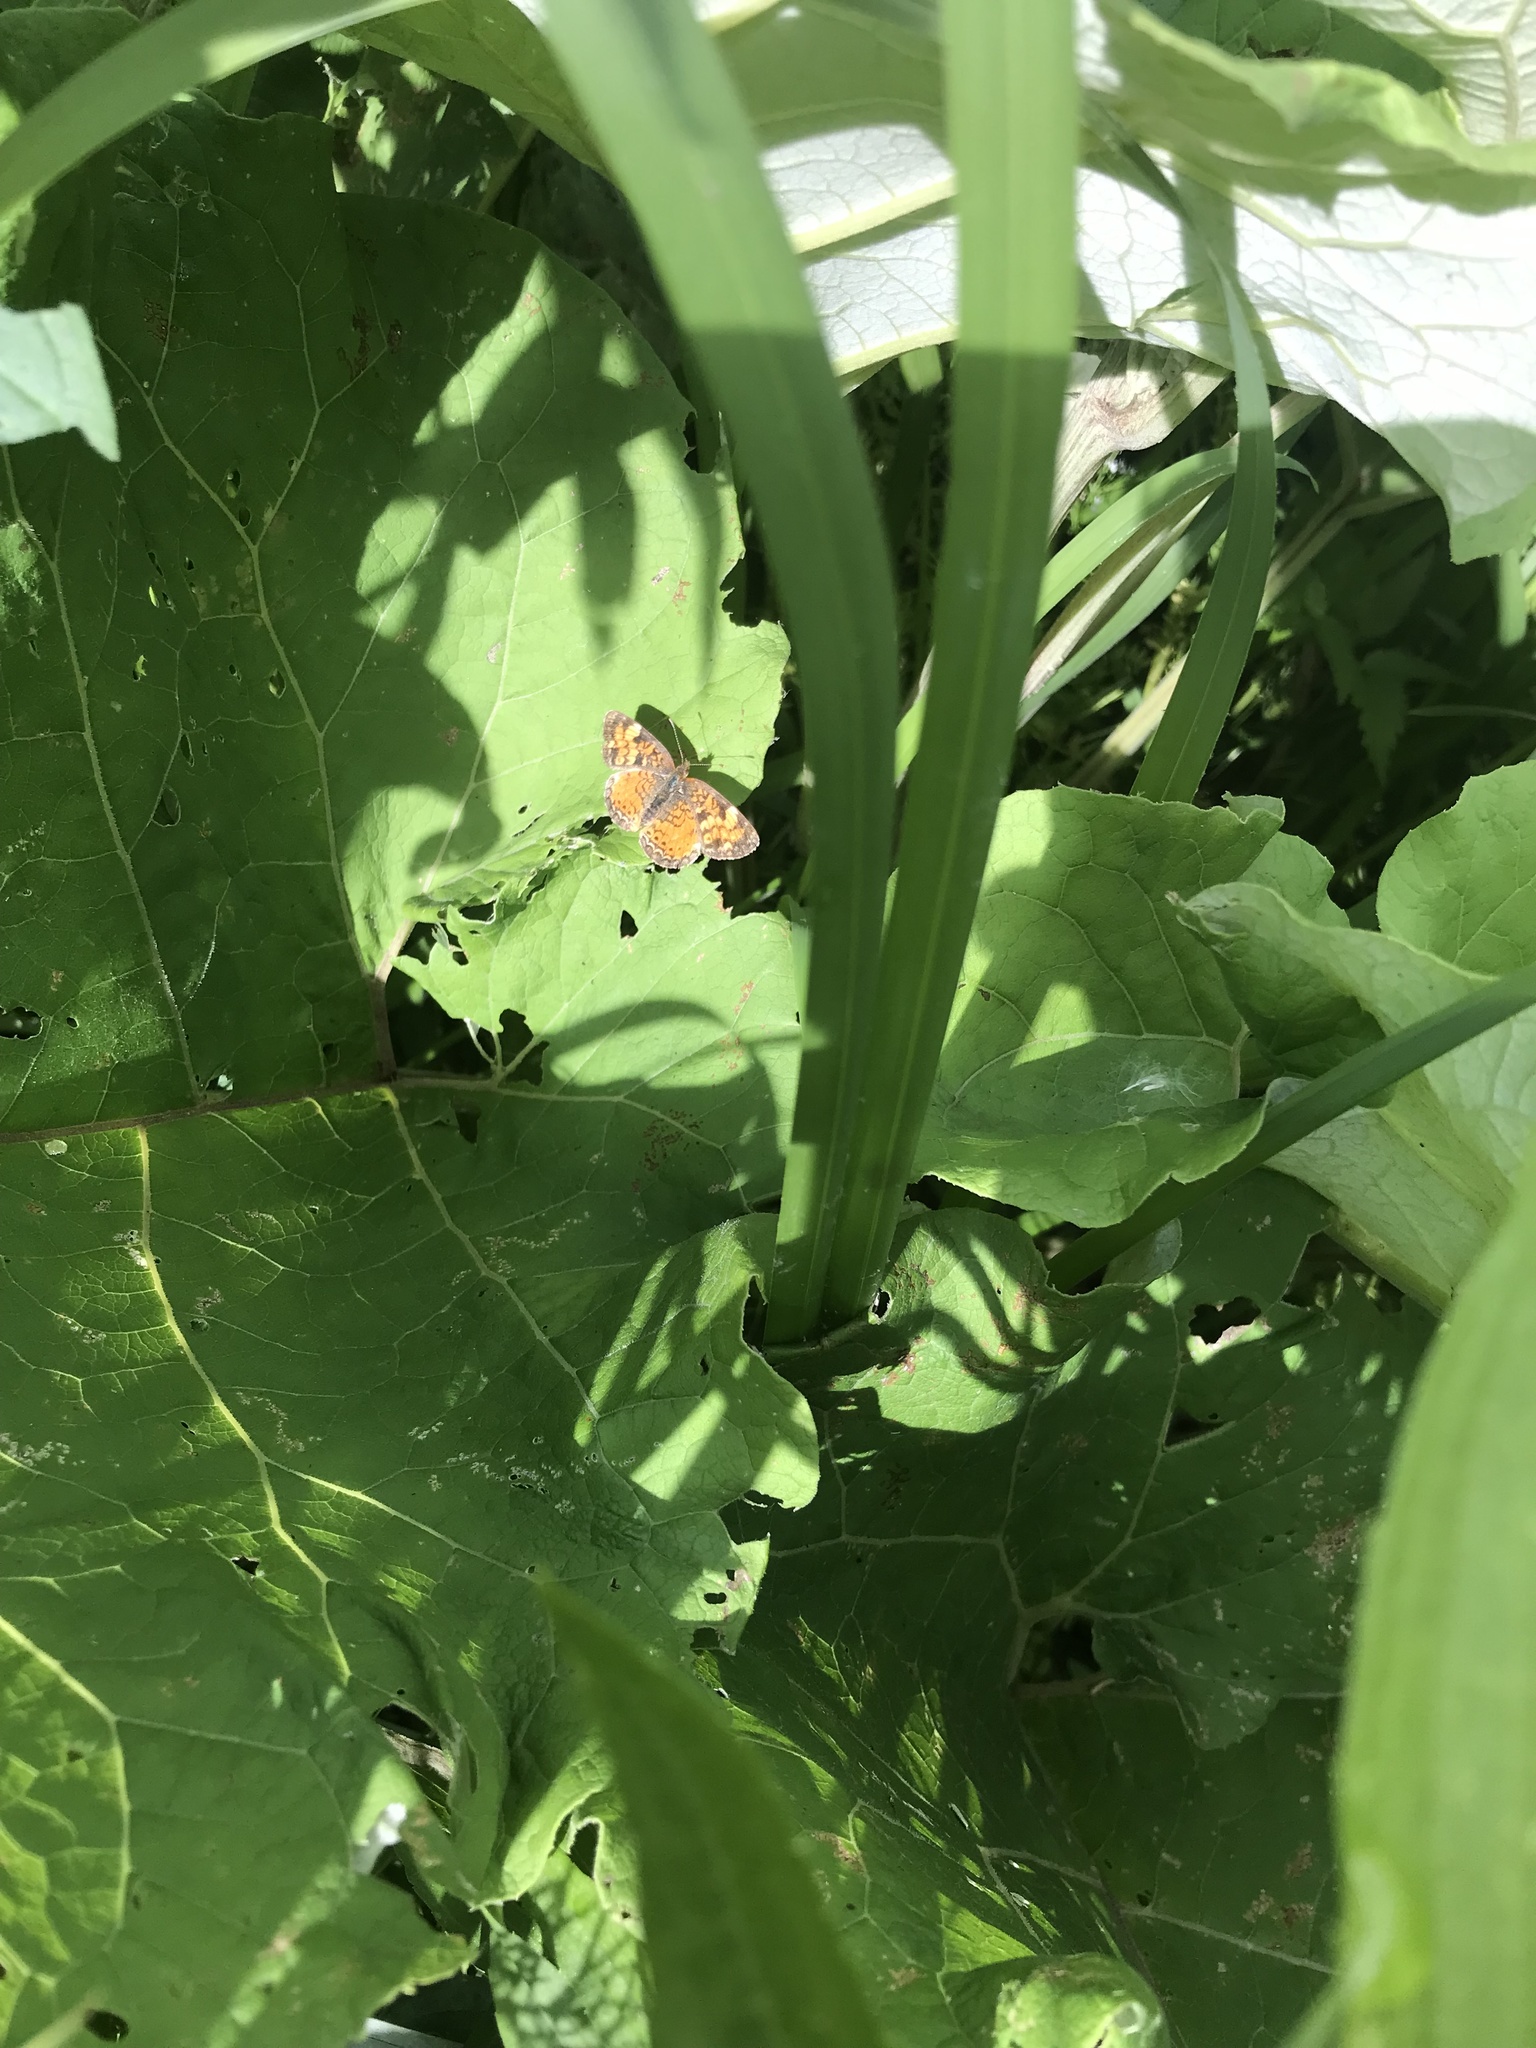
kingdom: Animalia
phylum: Arthropoda
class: Insecta
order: Lepidoptera
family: Nymphalidae
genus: Phyciodes
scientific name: Phyciodes tharos
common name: Pearl crescent
